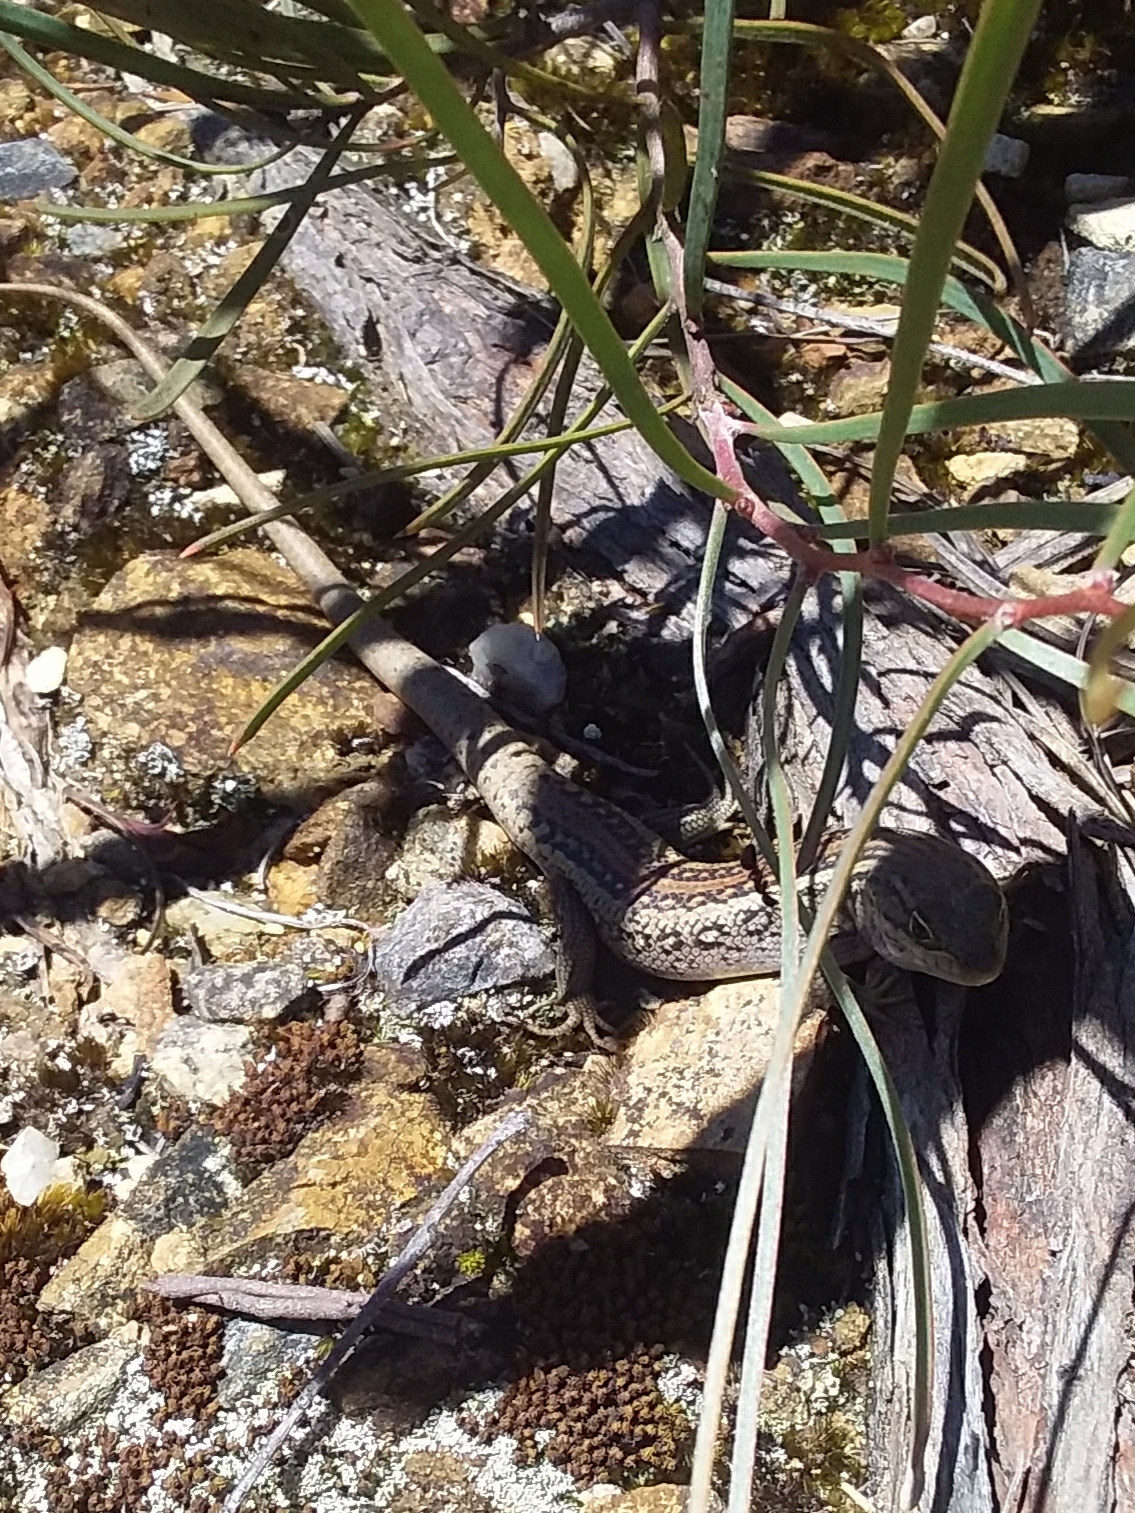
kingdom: Animalia
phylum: Chordata
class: Squamata
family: Scincidae
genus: Liopholis
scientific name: Liopholis whitii
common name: White's rock-skink
